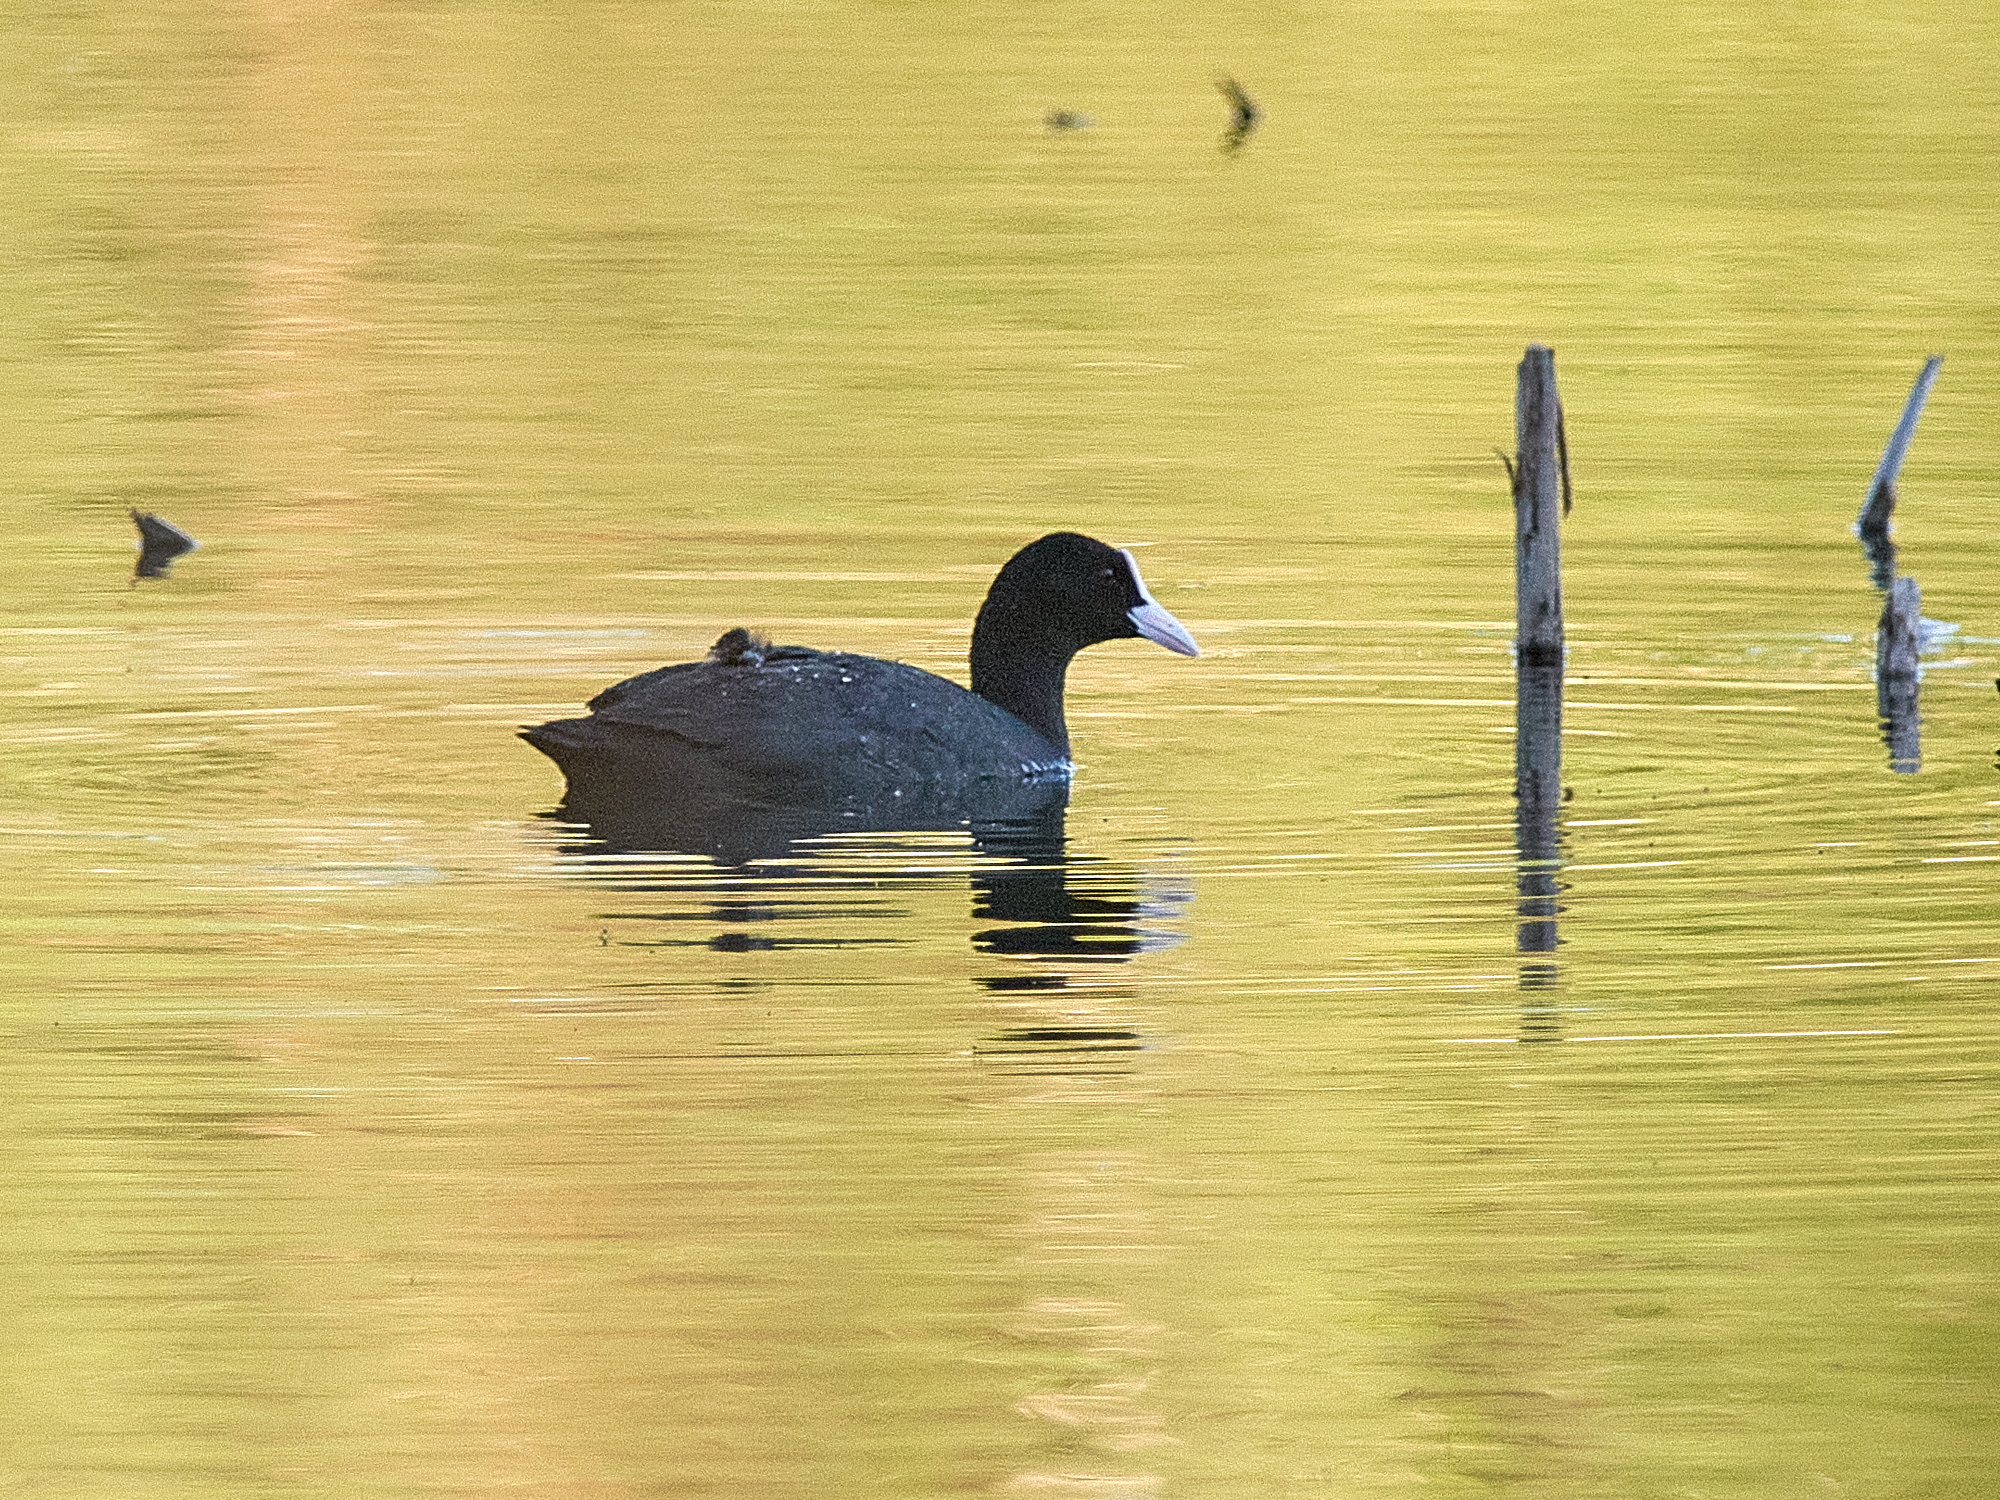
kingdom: Animalia
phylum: Chordata
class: Aves
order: Gruiformes
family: Rallidae
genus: Fulica
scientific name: Fulica atra
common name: Eurasian coot
